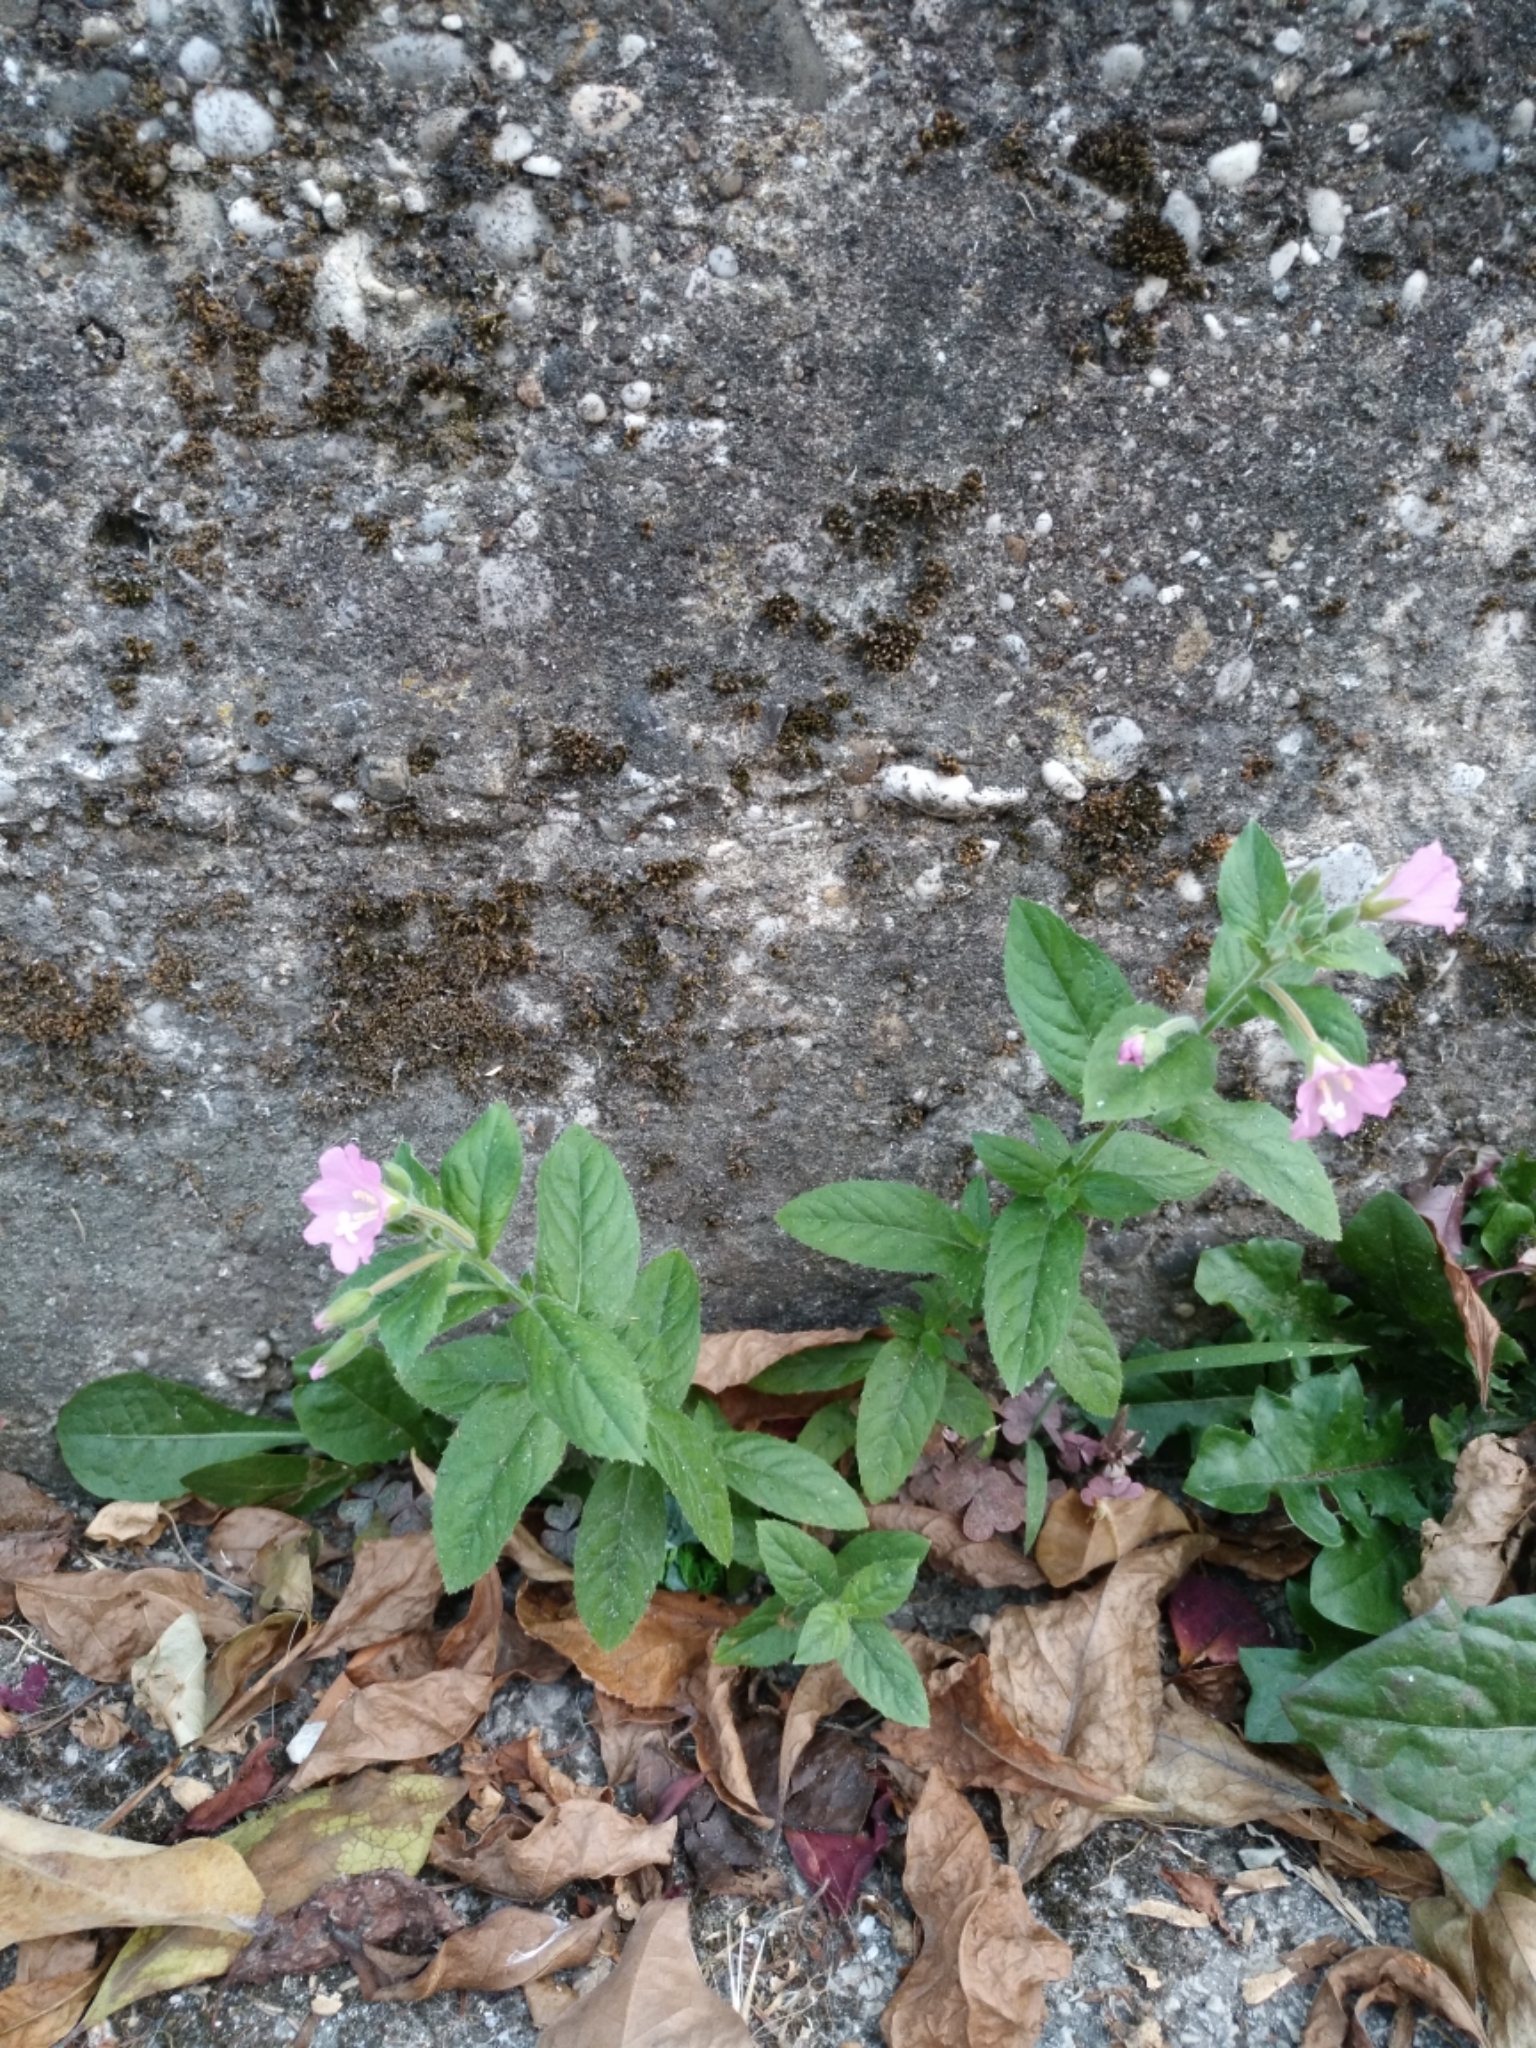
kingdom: Plantae
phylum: Tracheophyta
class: Magnoliopsida
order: Myrtales
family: Onagraceae
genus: Epilobium
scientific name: Epilobium hirsutum
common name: Great willowherb
